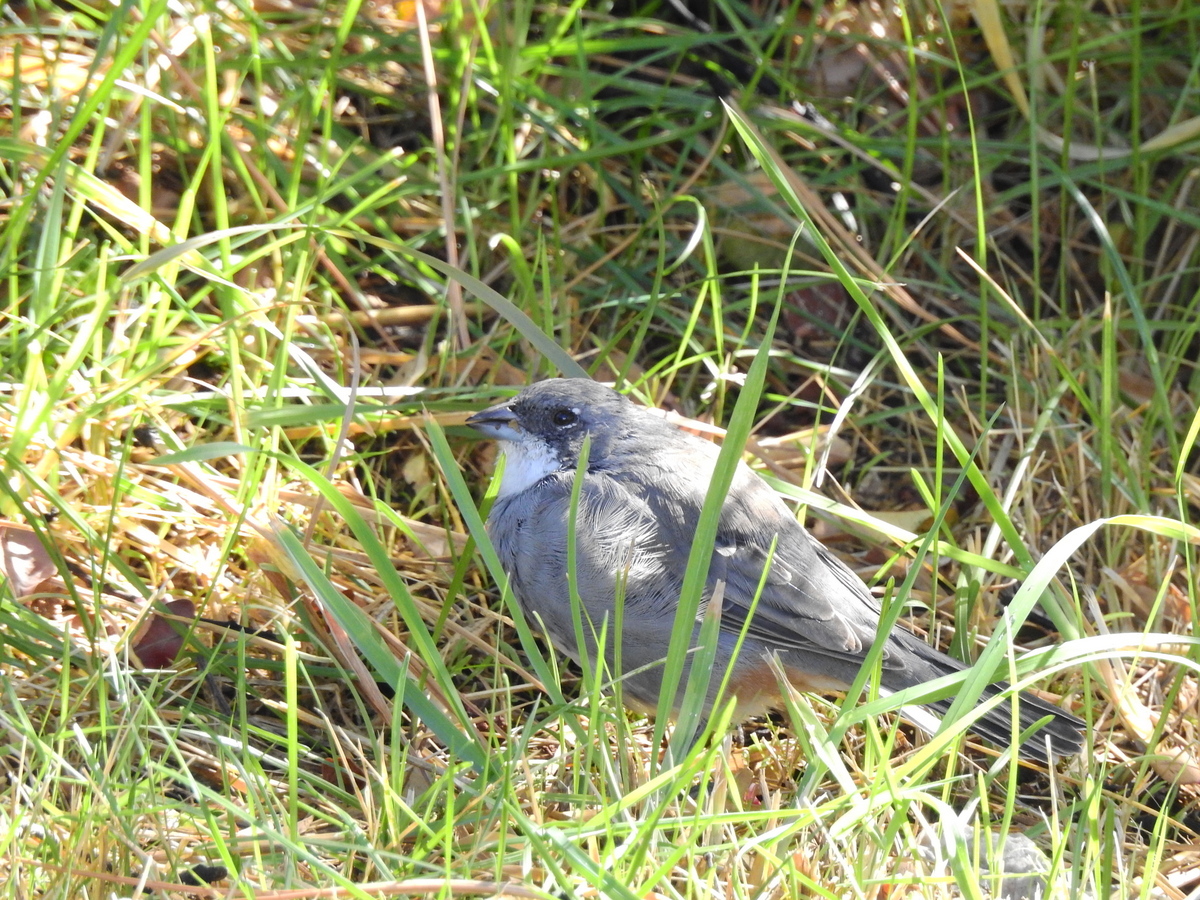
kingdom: Animalia
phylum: Chordata
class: Aves
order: Passeriformes
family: Thraupidae
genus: Diuca
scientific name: Diuca diuca
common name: Common diuca finch
